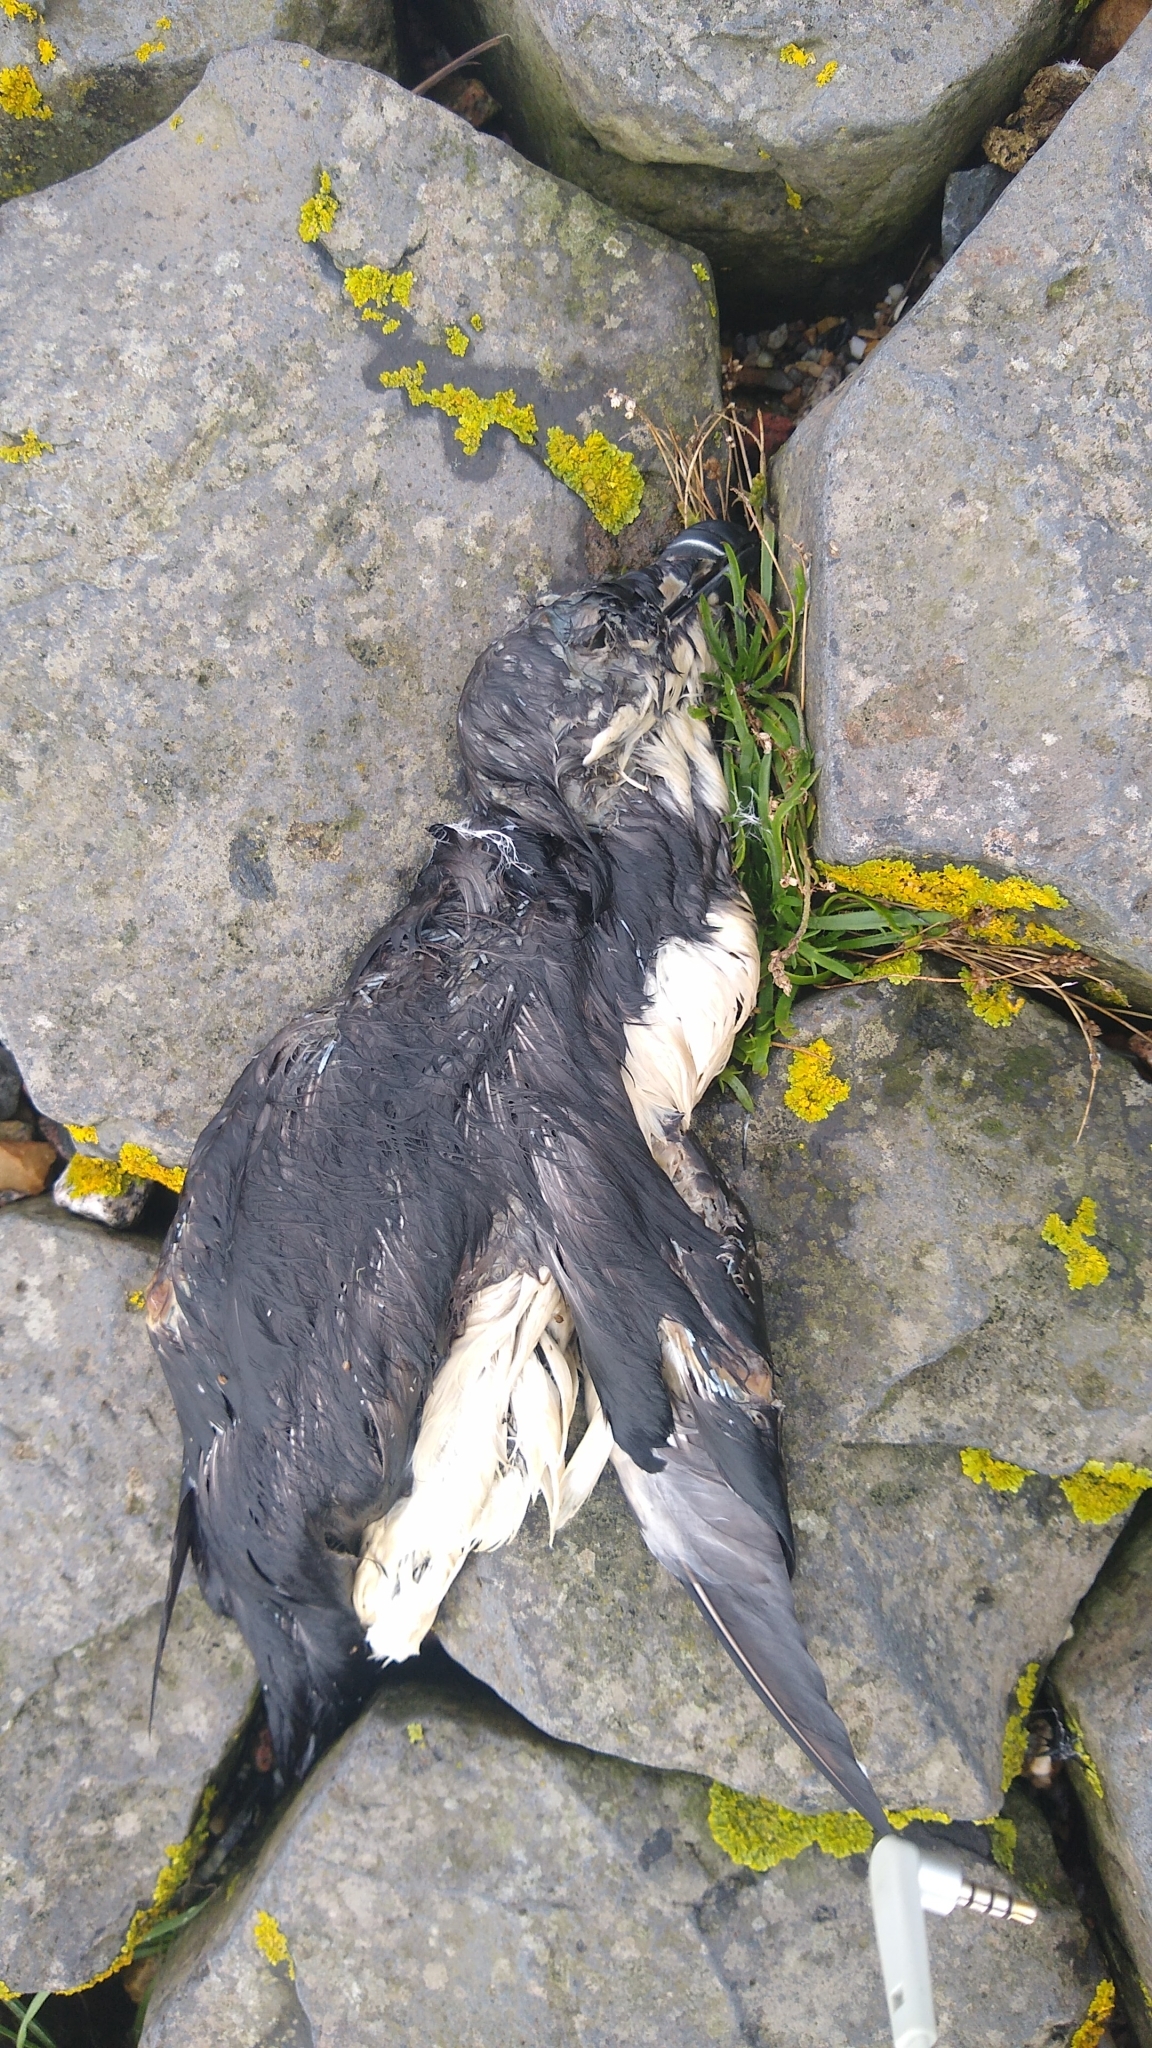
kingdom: Animalia
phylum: Chordata
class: Aves
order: Charadriiformes
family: Alcidae
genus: Alca
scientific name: Alca torda
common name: Razorbill
